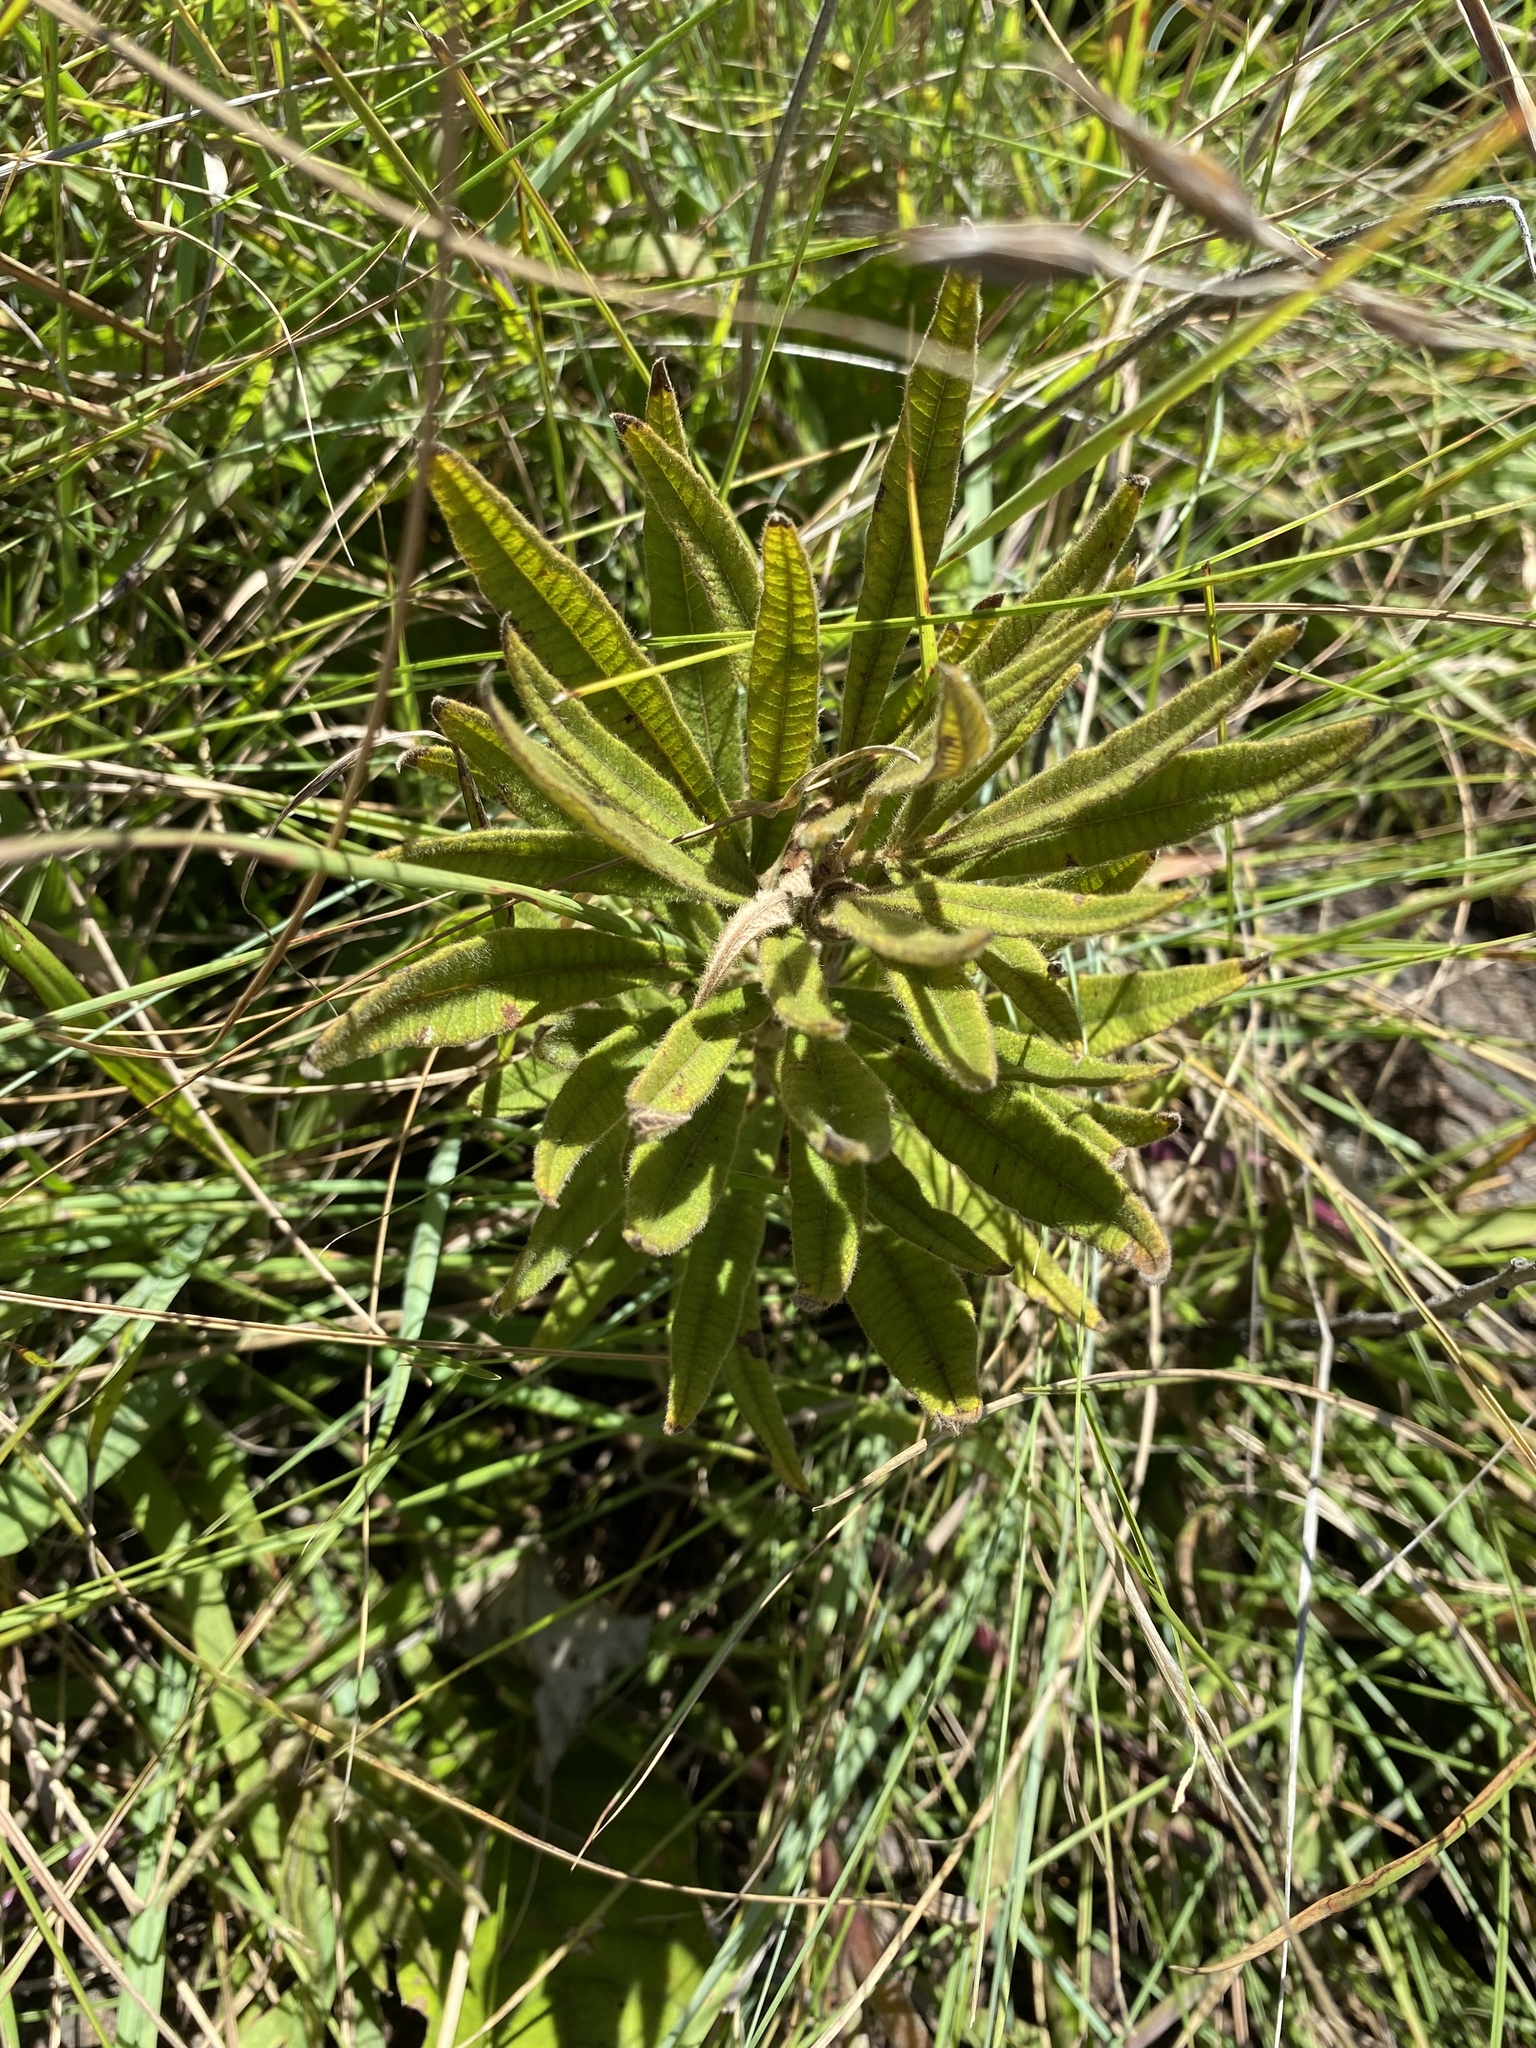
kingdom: Plantae
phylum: Tracheophyta
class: Magnoliopsida
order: Sapindales
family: Anacardiaceae
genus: Searsia
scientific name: Searsia discolor
